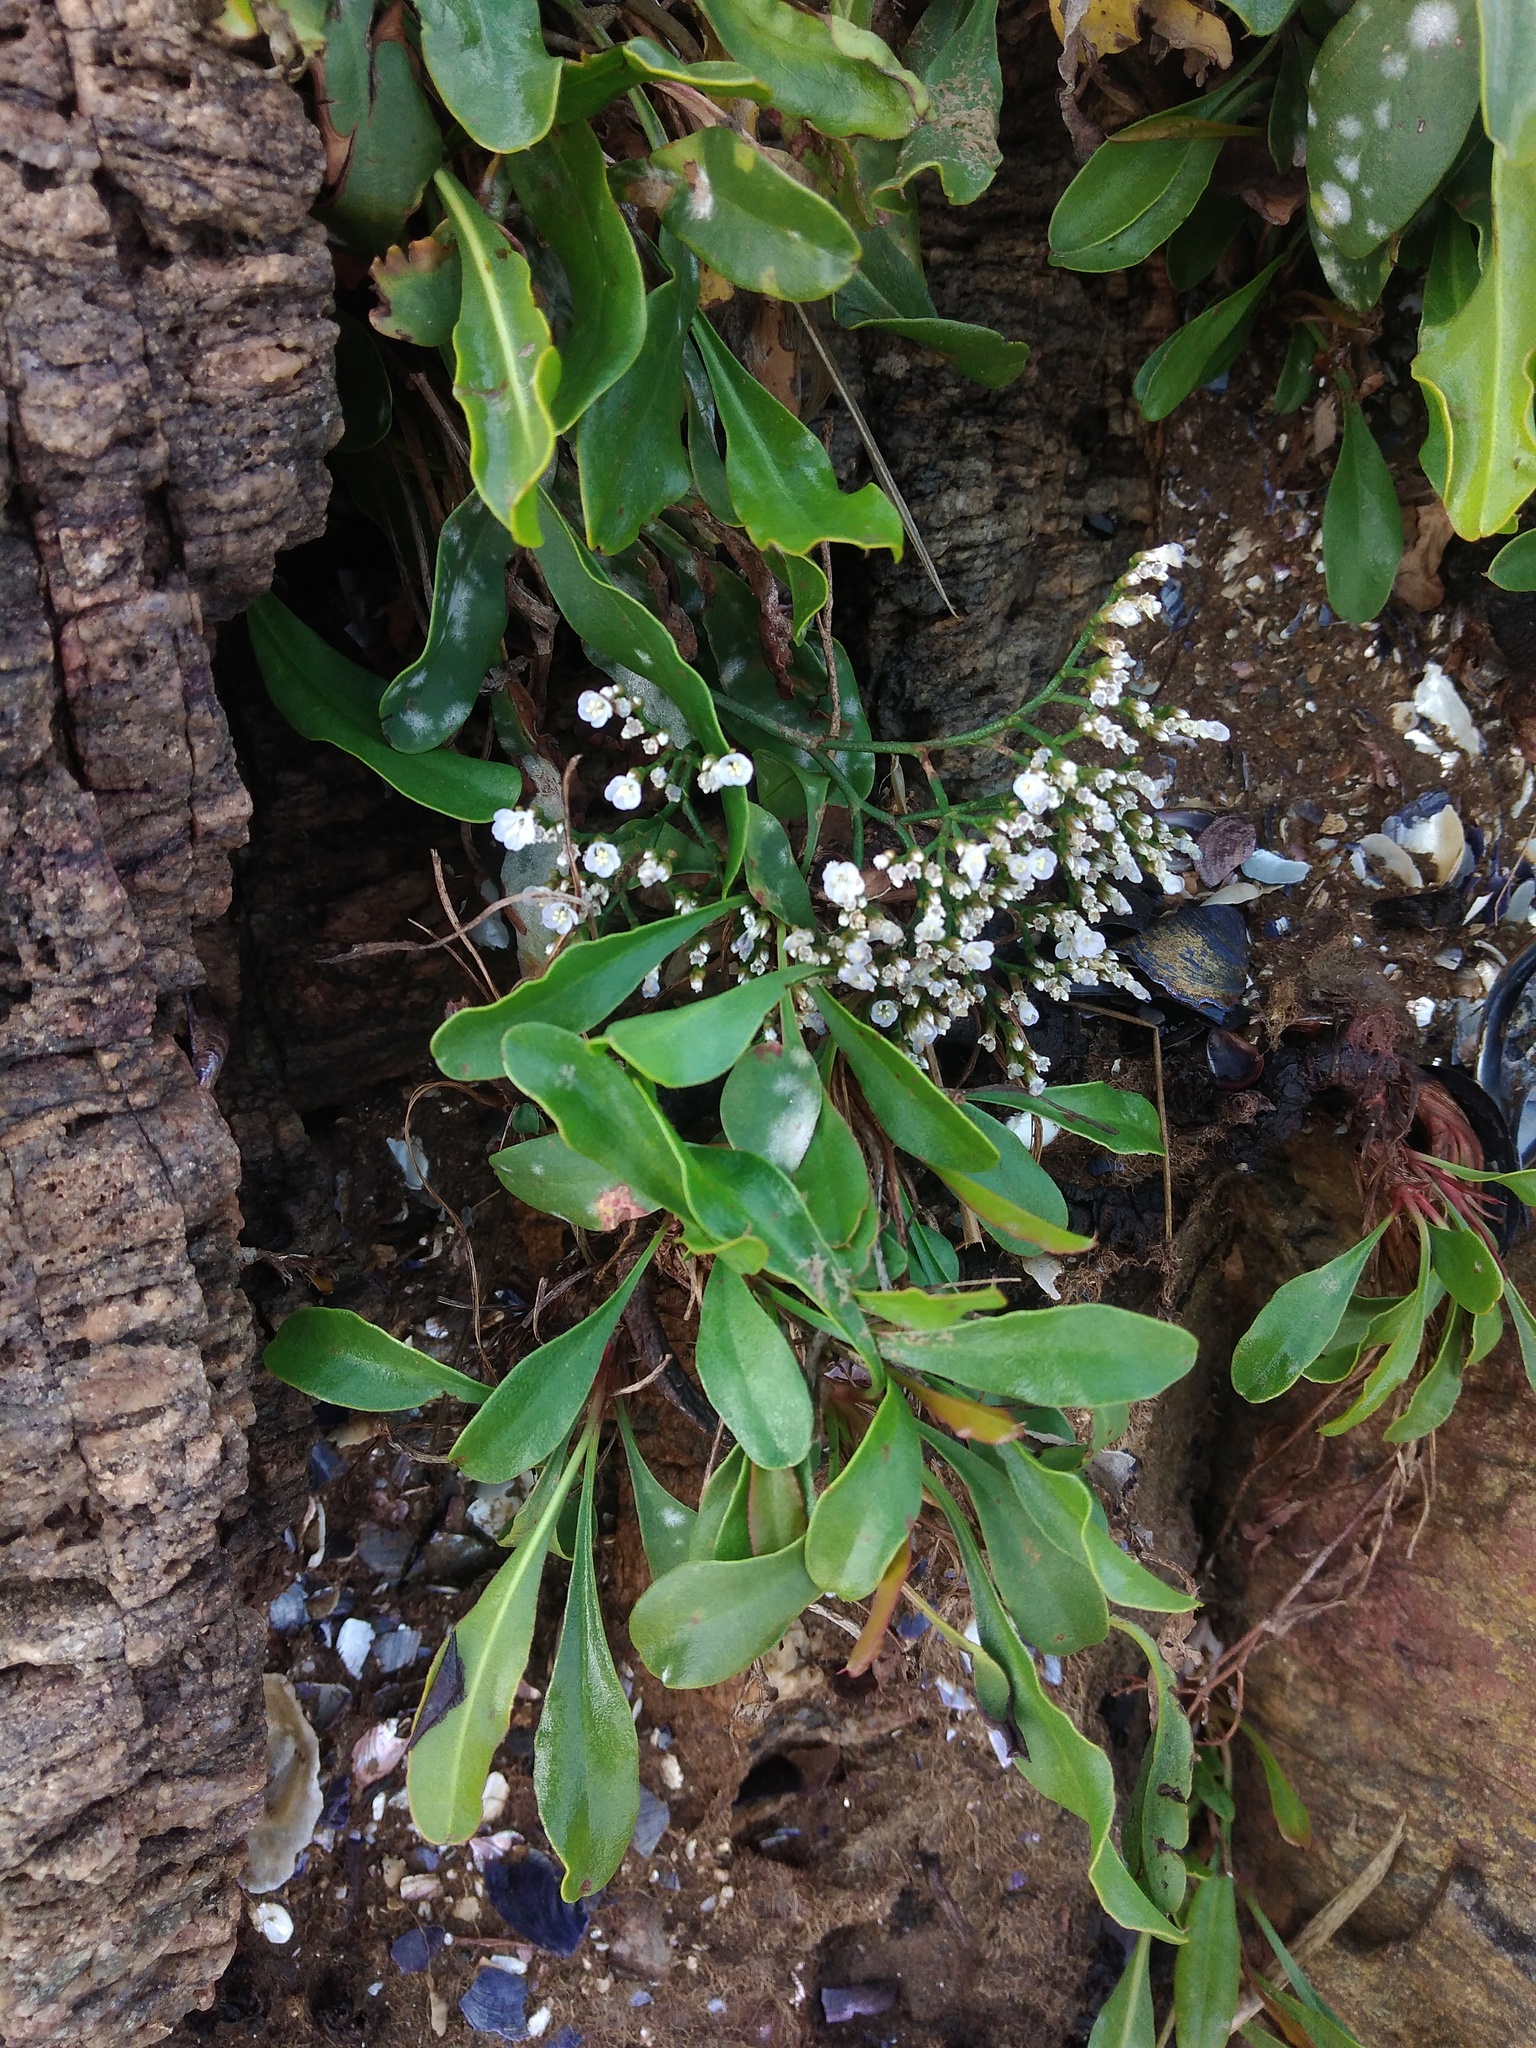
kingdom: Plantae
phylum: Tracheophyta
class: Magnoliopsida
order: Caryophyllales
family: Plumbaginaceae
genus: Limonium
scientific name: Limonium brasiliense
